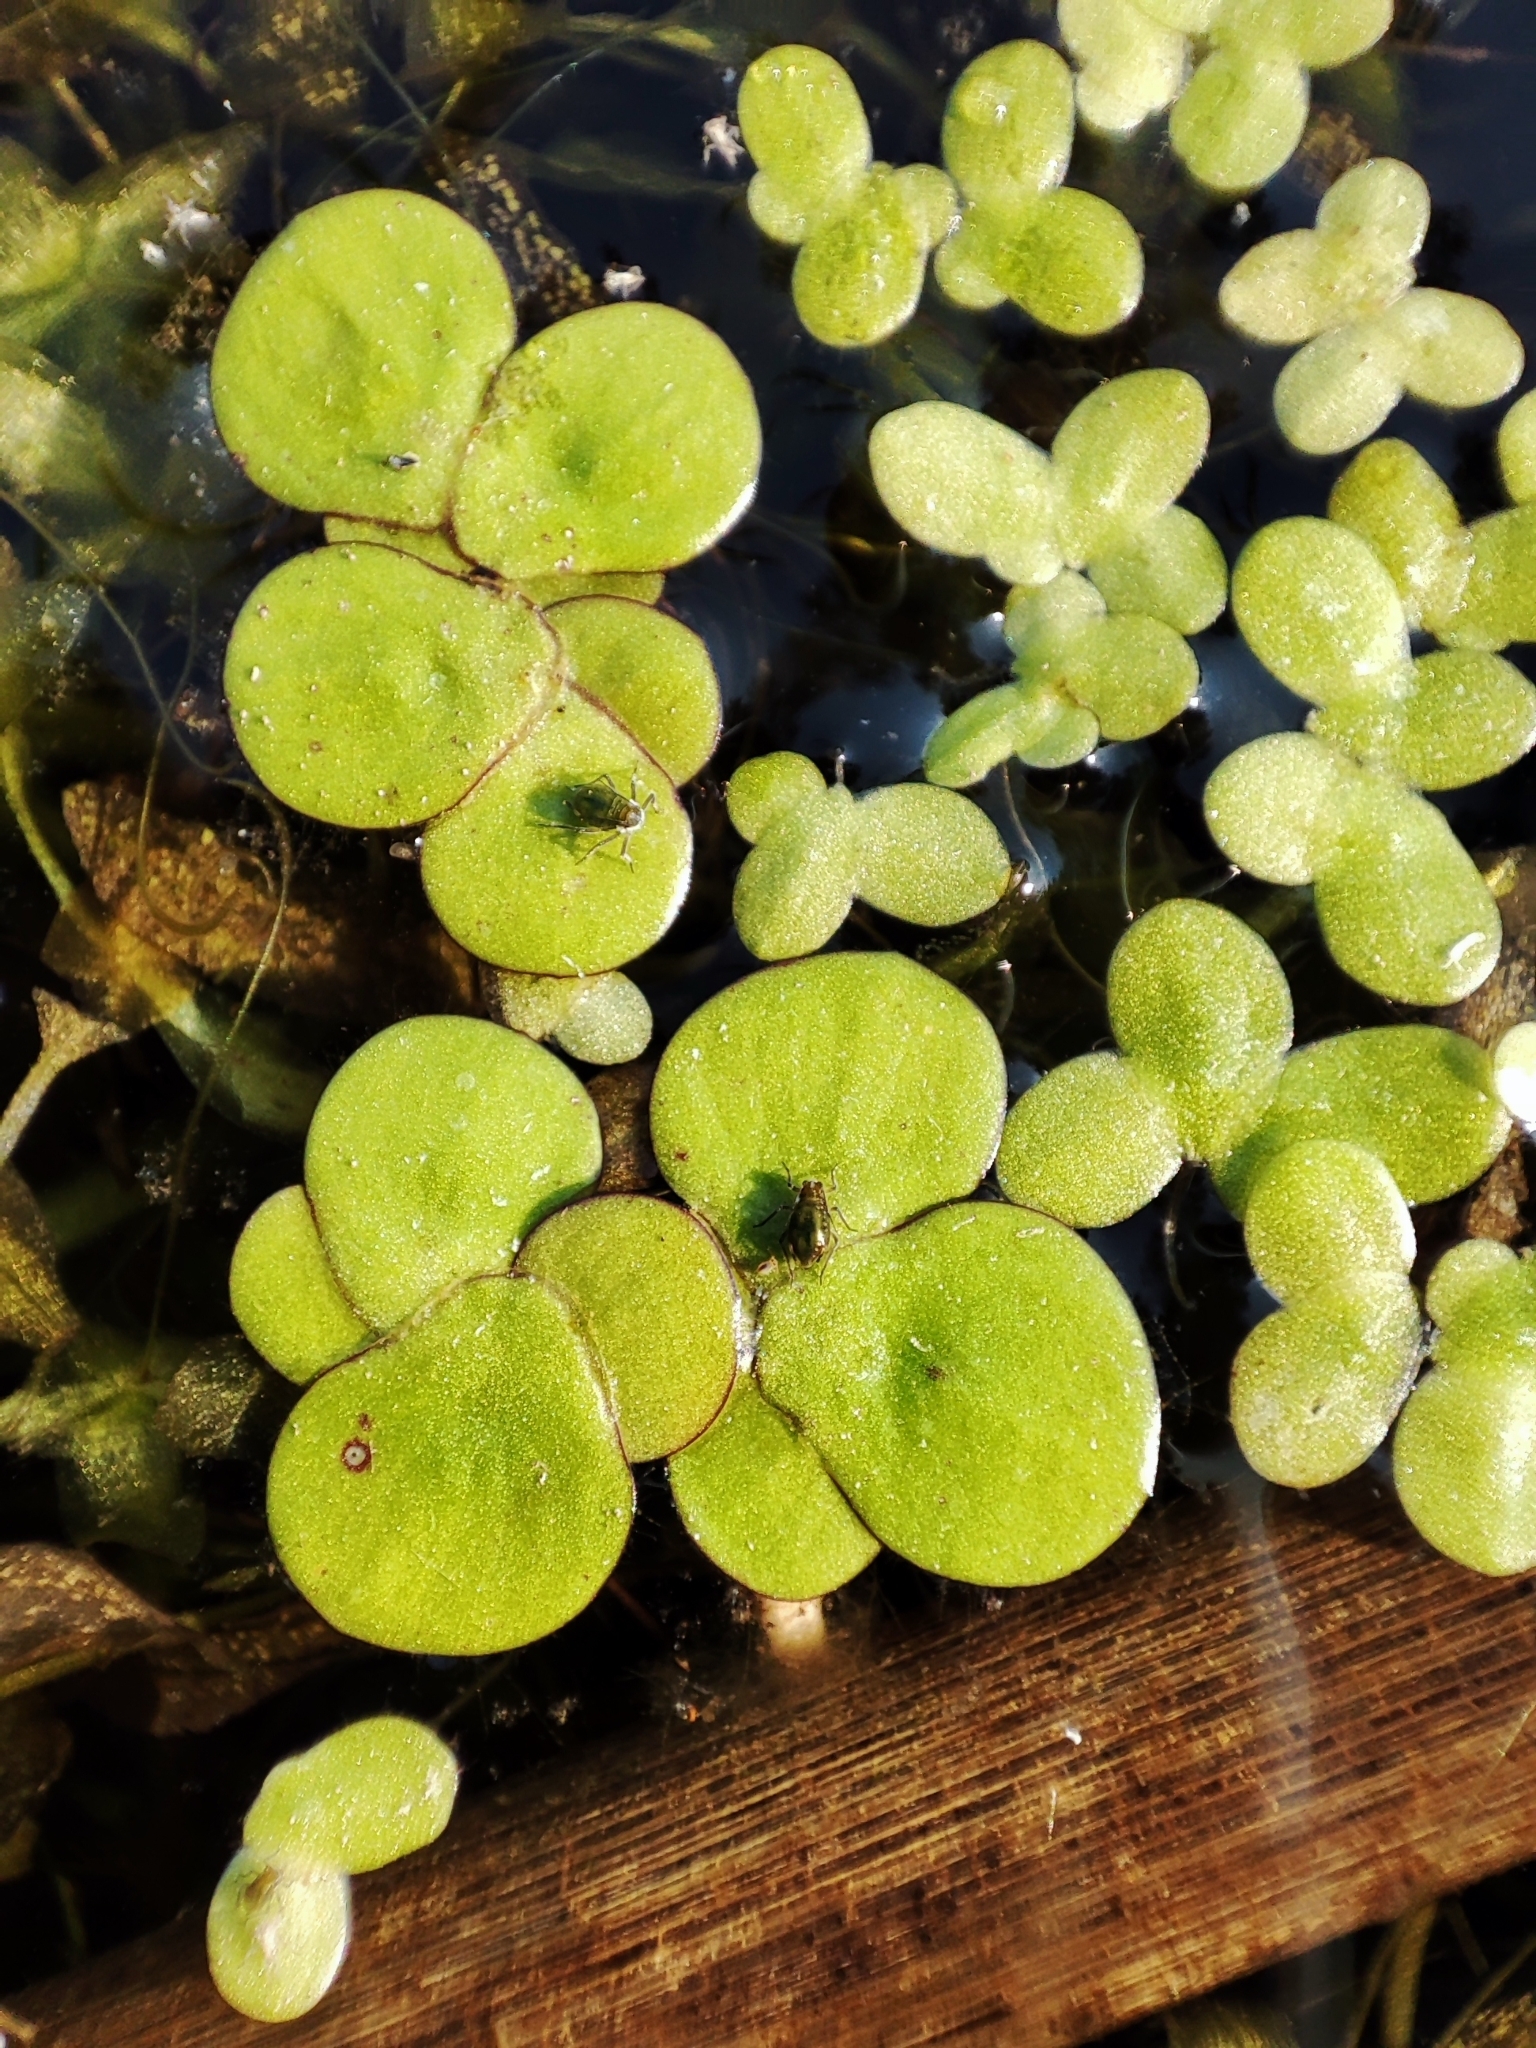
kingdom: Plantae
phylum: Tracheophyta
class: Liliopsida
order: Alismatales
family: Araceae
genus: Spirodela
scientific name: Spirodela polyrhiza
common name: Great duckweed
